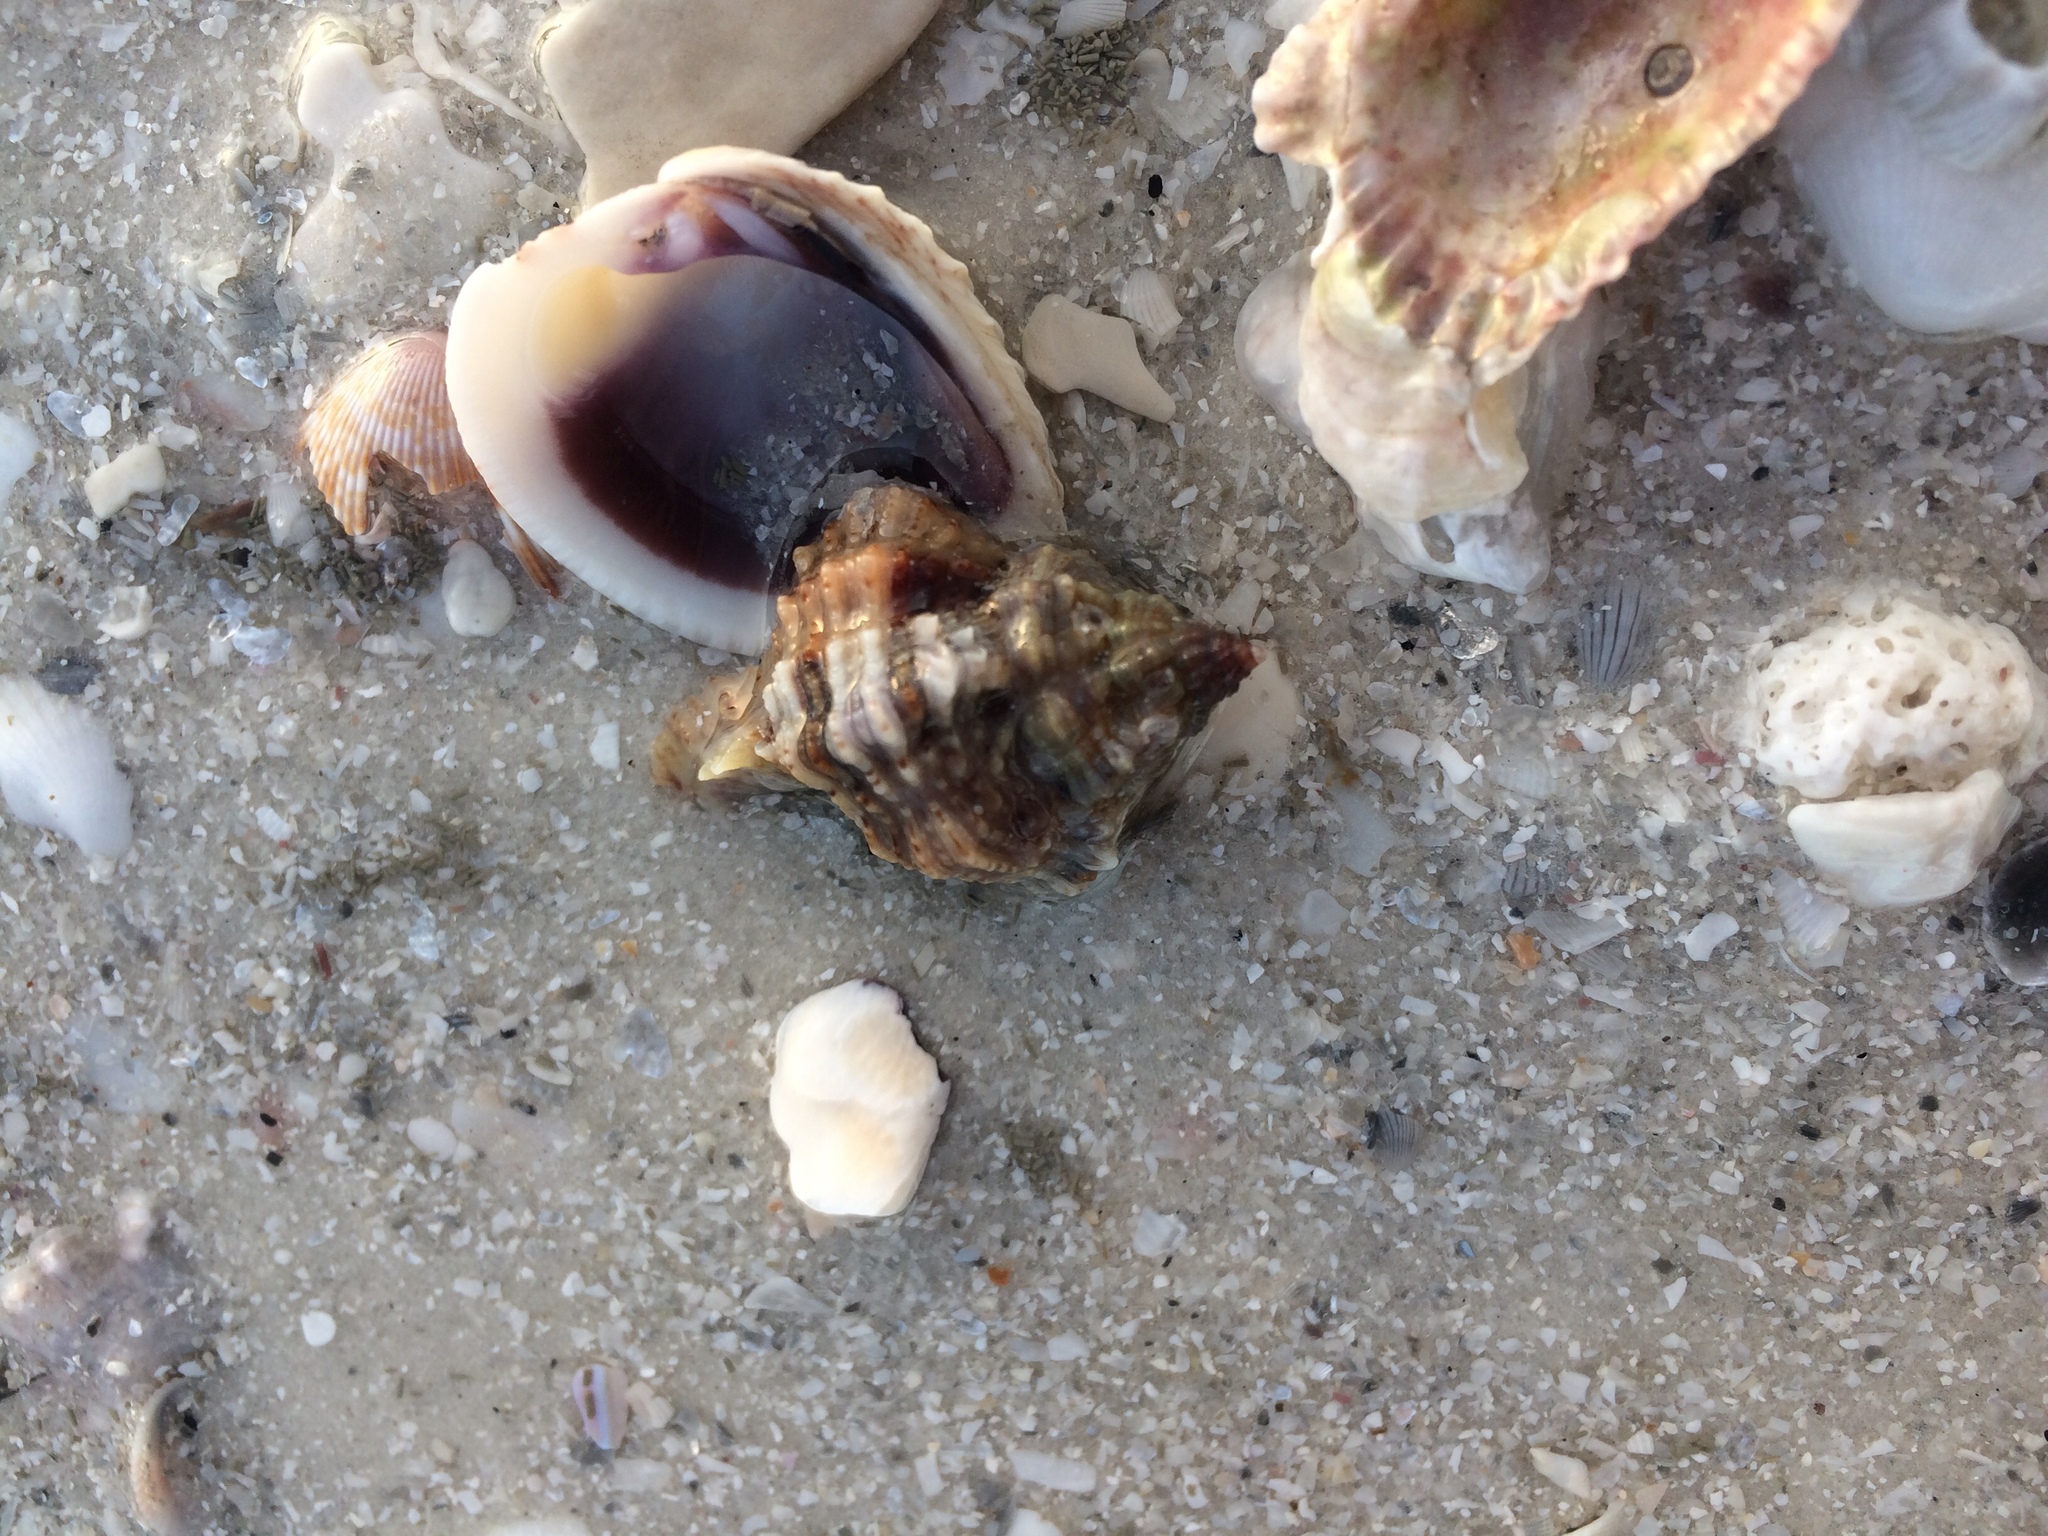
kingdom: Animalia
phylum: Mollusca
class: Gastropoda
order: Neogastropoda
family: Muricidae
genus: Phyllonotus
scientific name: Phyllonotus pomum
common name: Apple murex
